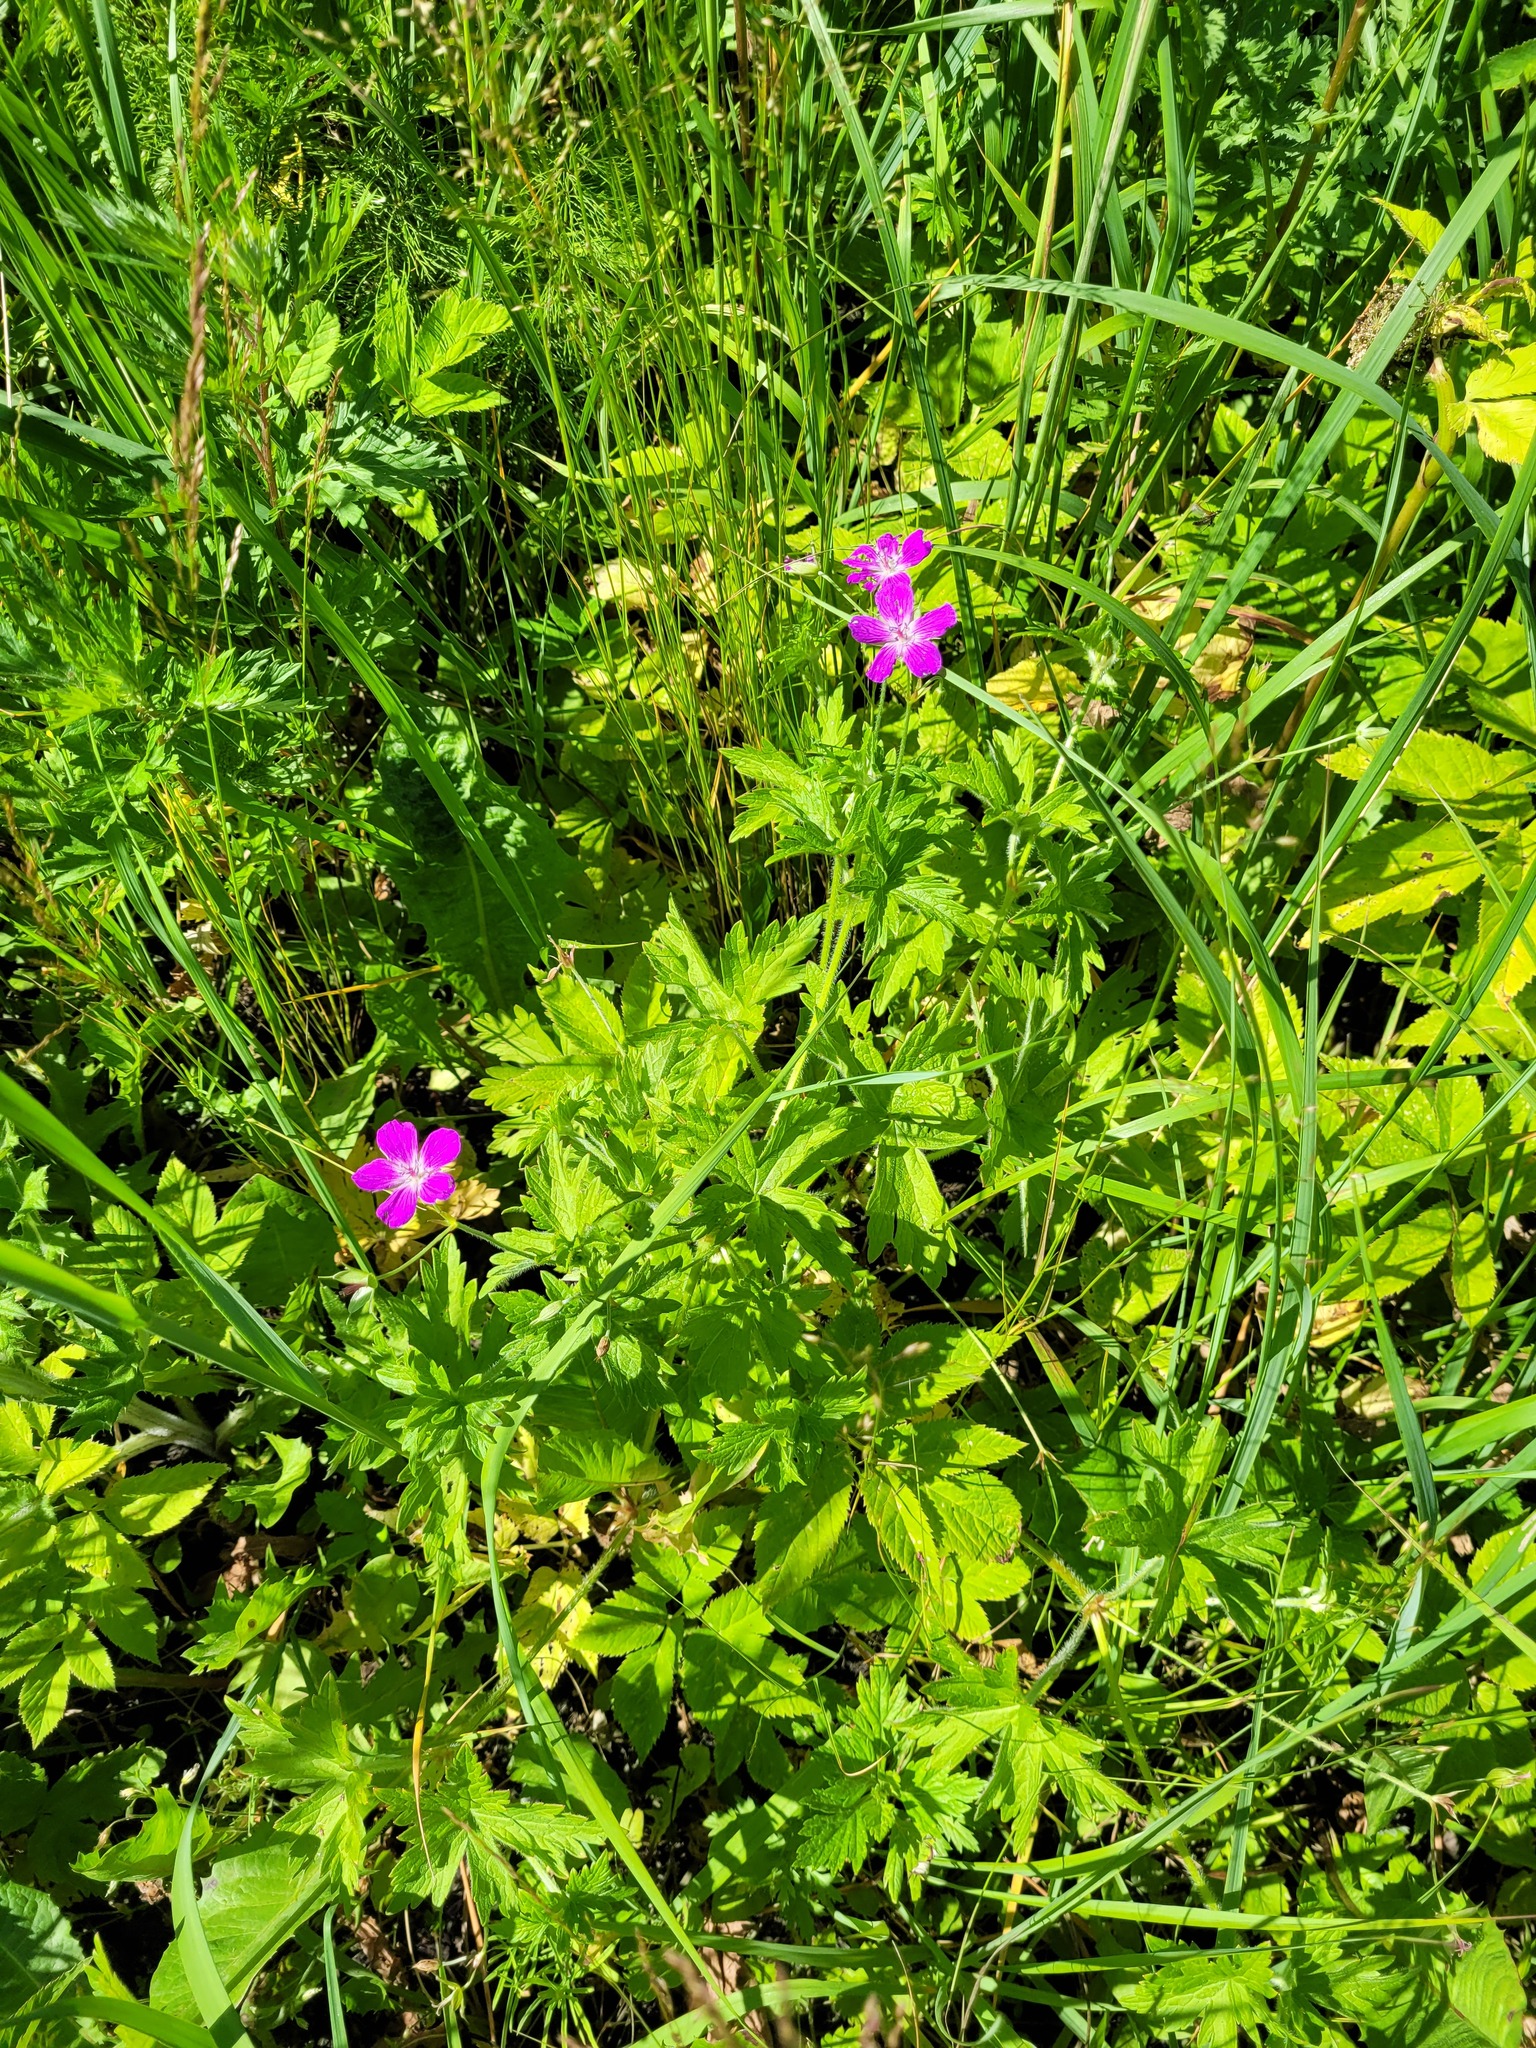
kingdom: Plantae
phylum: Tracheophyta
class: Magnoliopsida
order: Geraniales
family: Geraniaceae
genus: Geranium
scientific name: Geranium palustre
